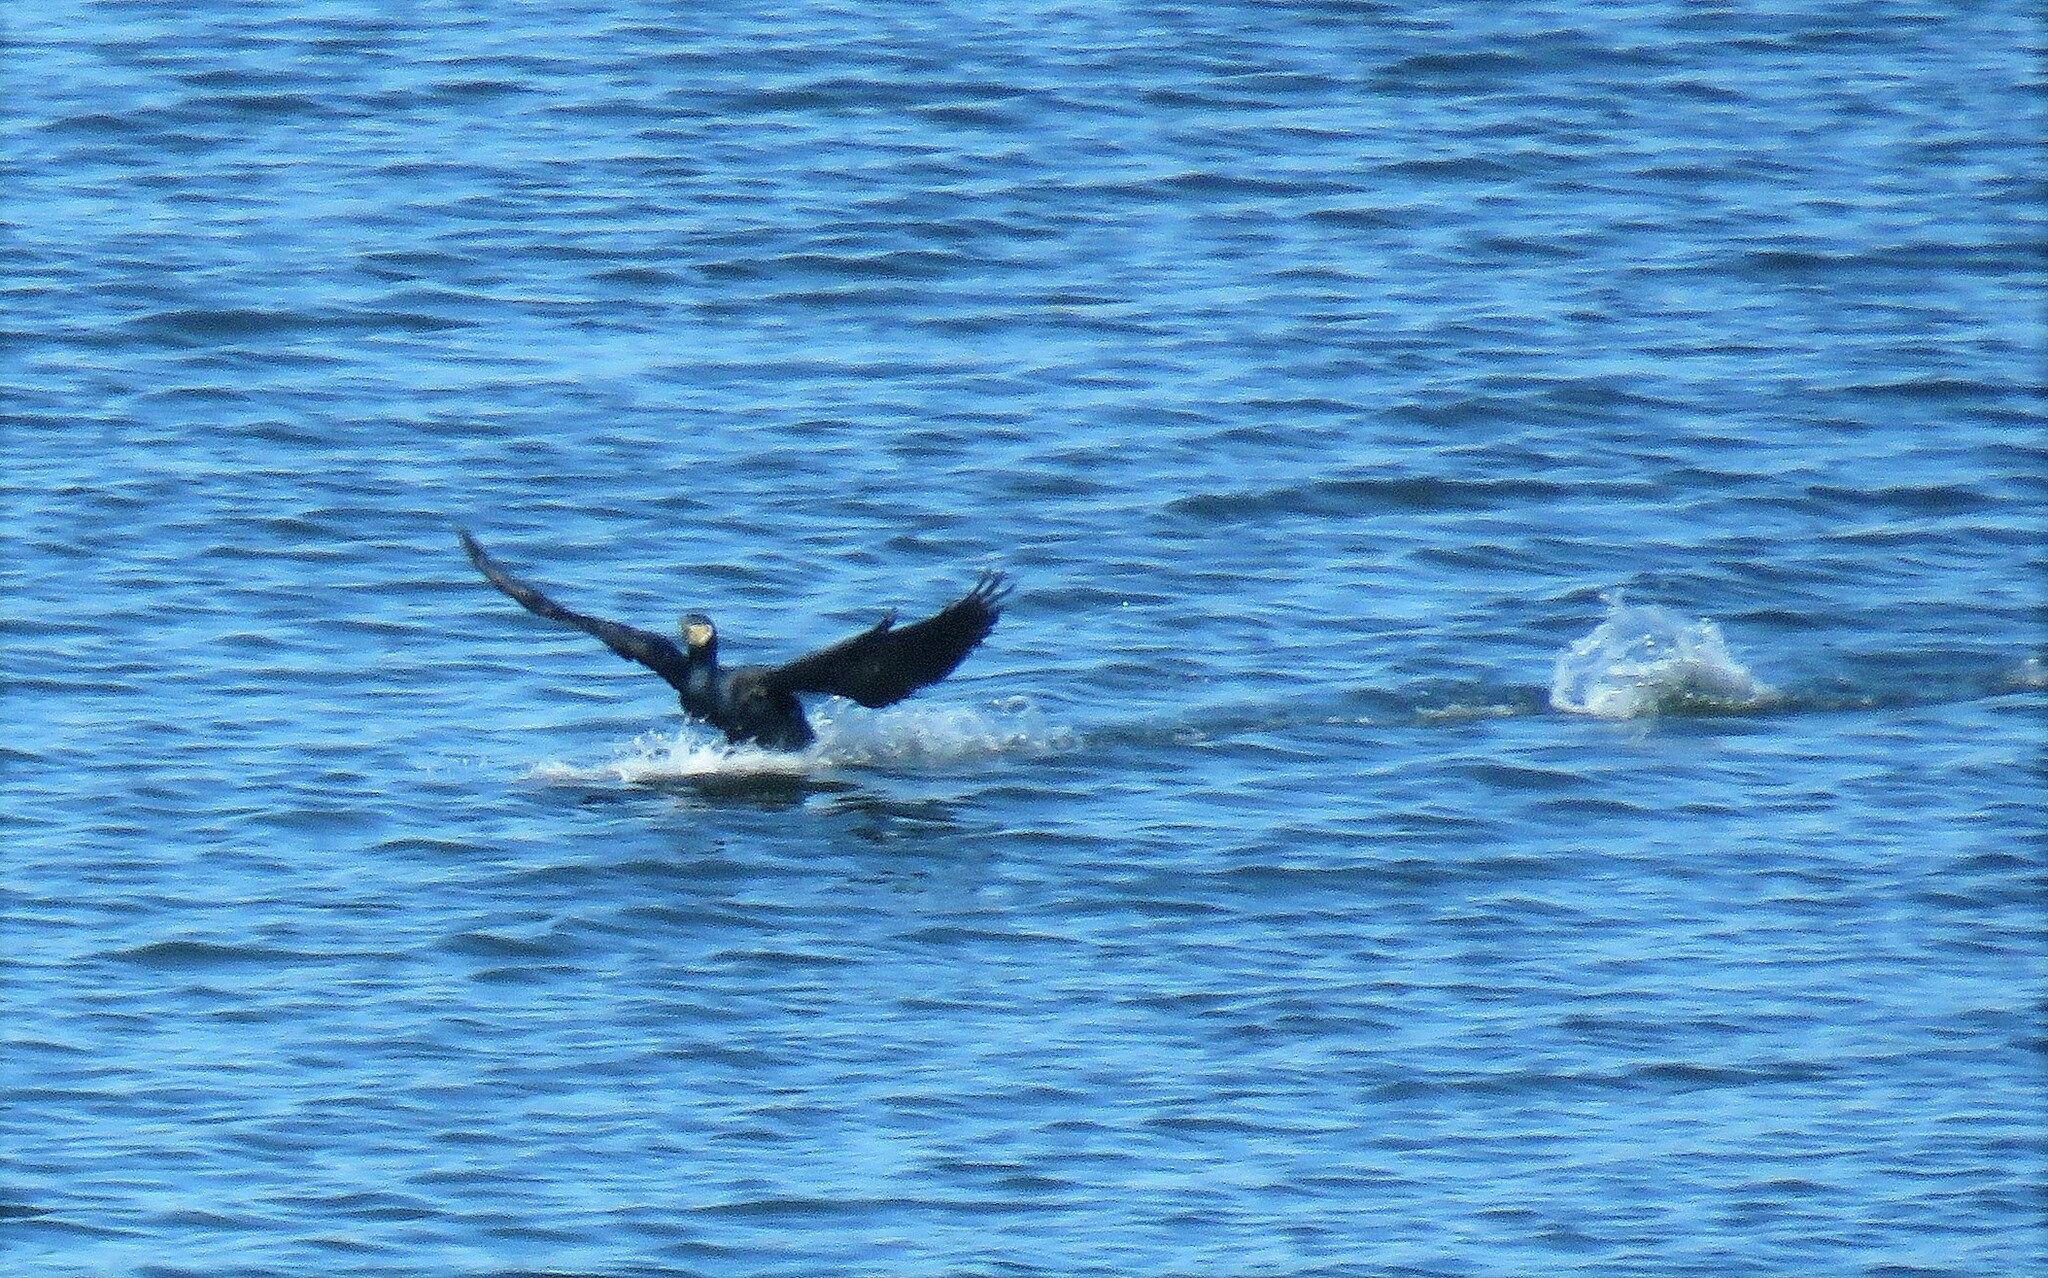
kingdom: Animalia
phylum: Chordata
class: Aves
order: Suliformes
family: Phalacrocoracidae
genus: Phalacrocorax
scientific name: Phalacrocorax carbo
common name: Great cormorant
